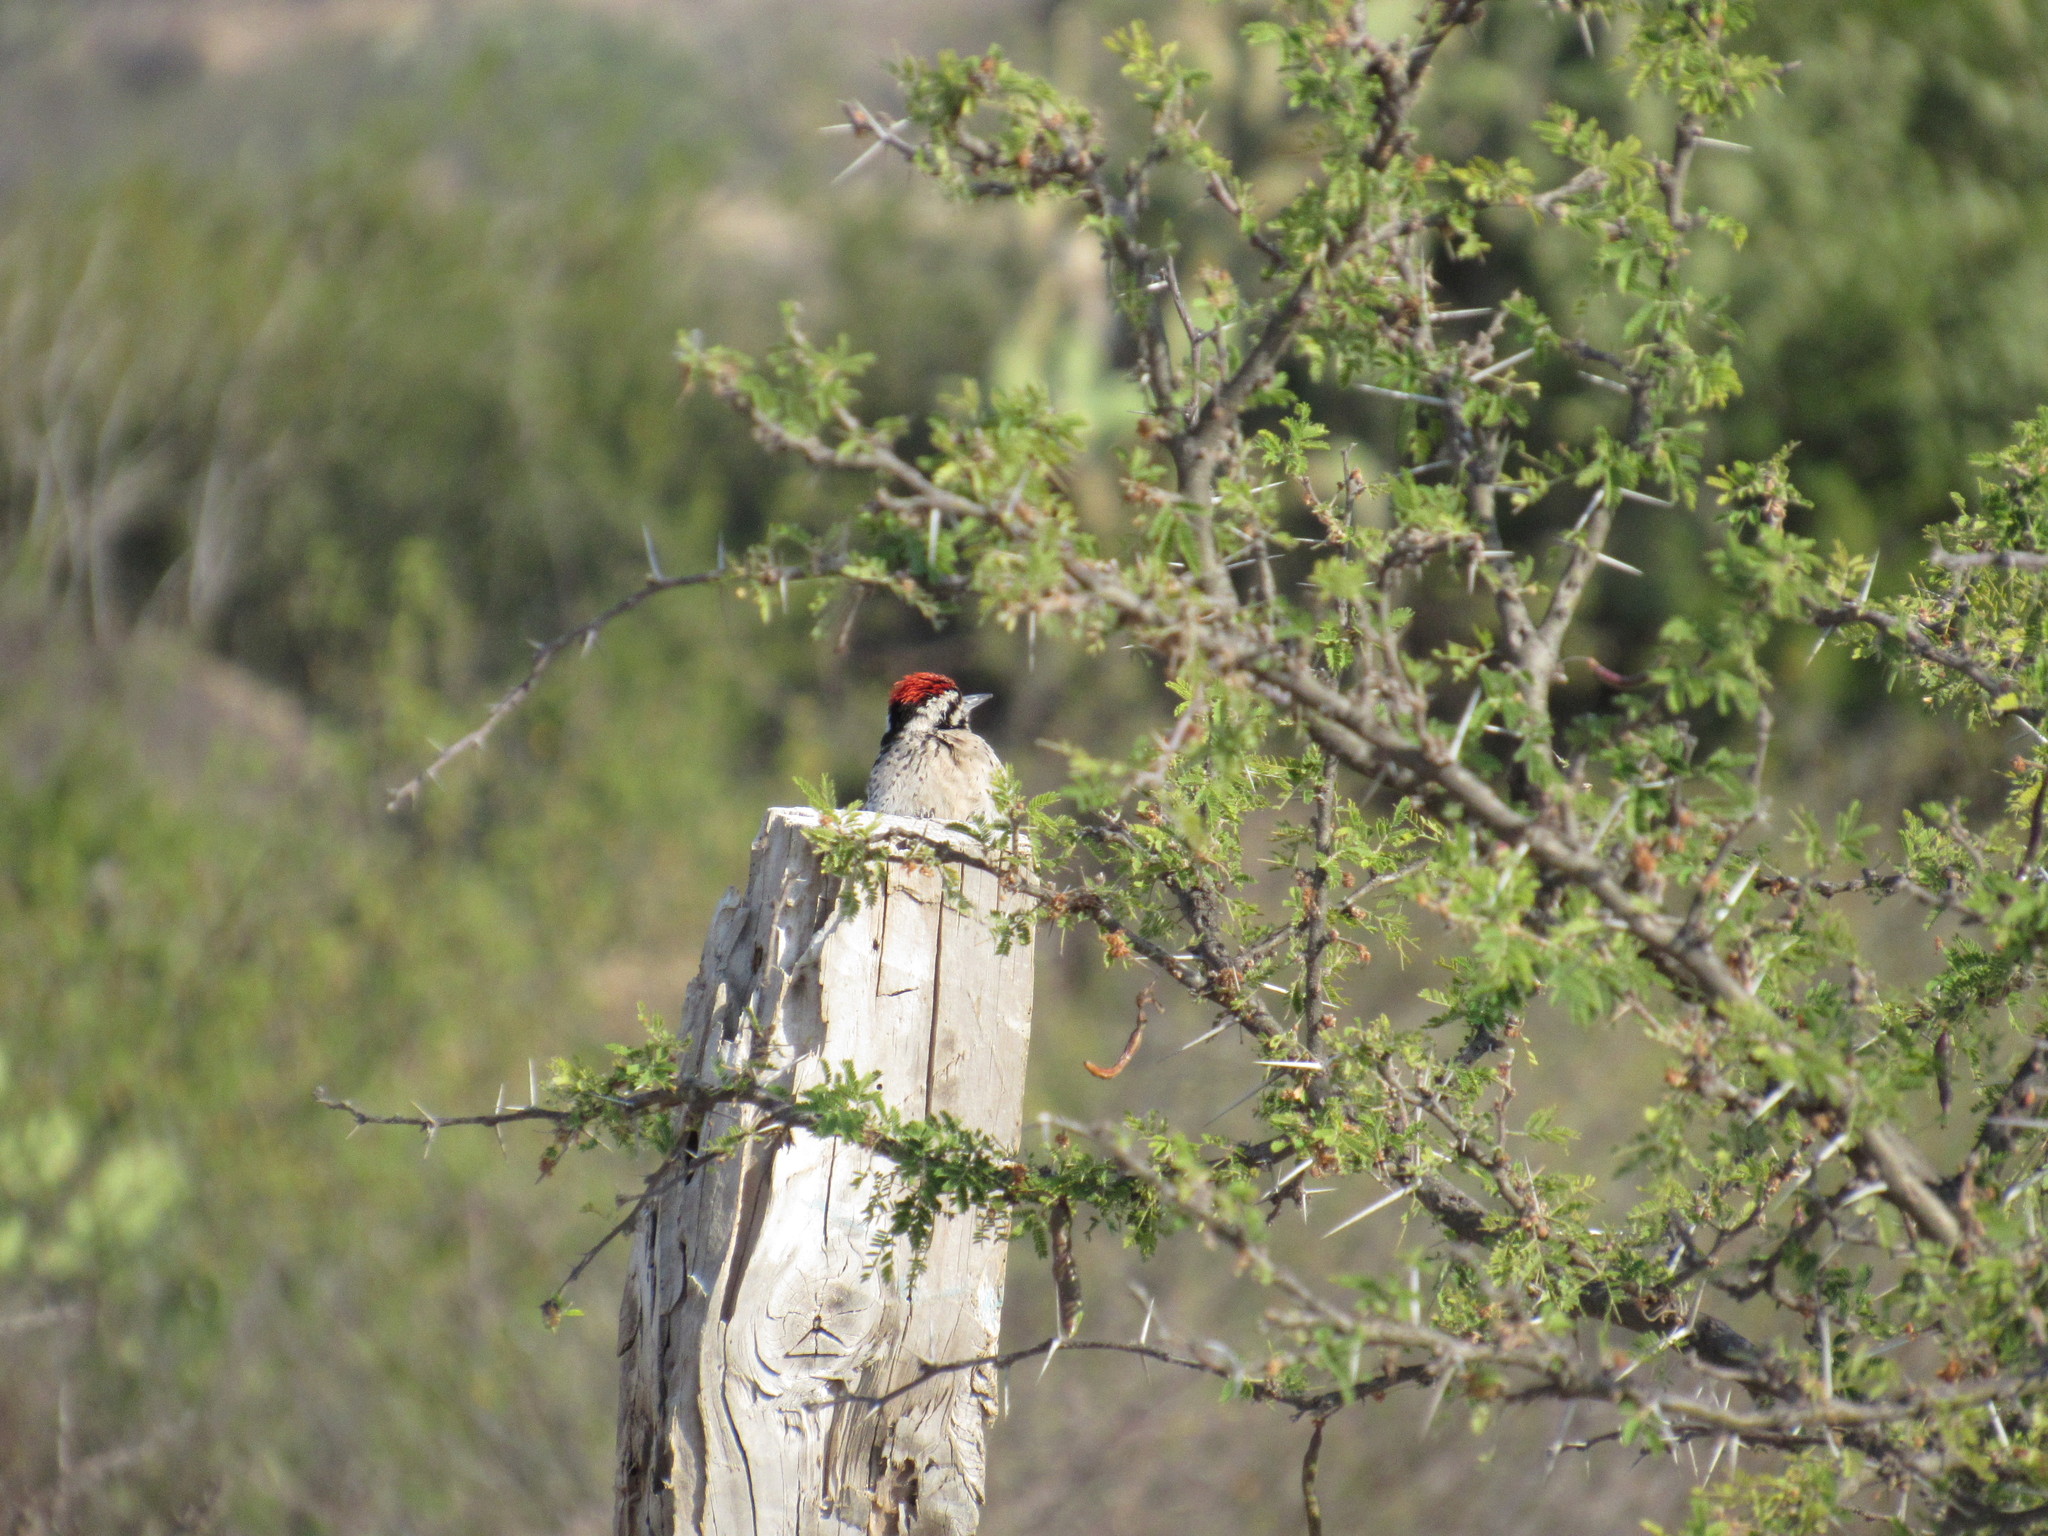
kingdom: Animalia
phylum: Chordata
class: Aves
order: Piciformes
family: Picidae
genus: Dryobates
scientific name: Dryobates scalaris
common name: Ladder-backed woodpecker
